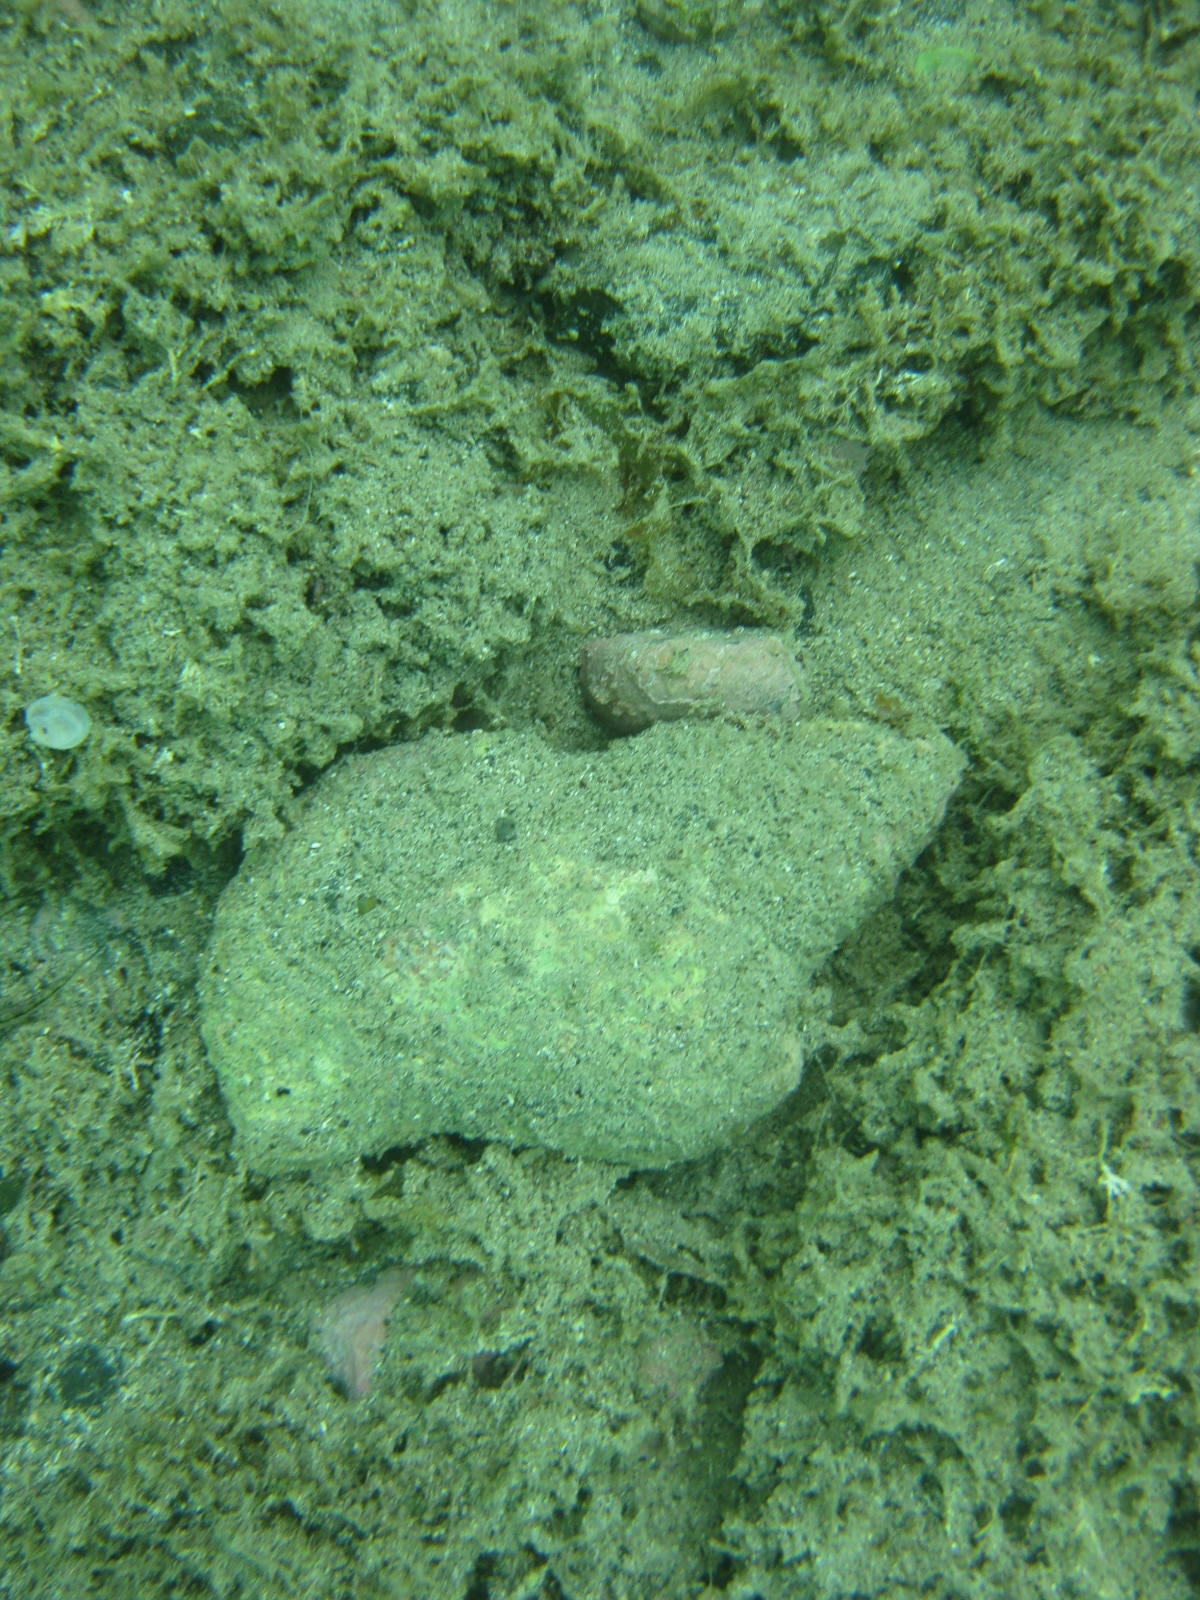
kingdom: Animalia
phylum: Mollusca
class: Gastropoda
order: Littorinimorpha
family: Charoniidae
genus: Charonia
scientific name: Charonia lampas
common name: Knobbed triton
